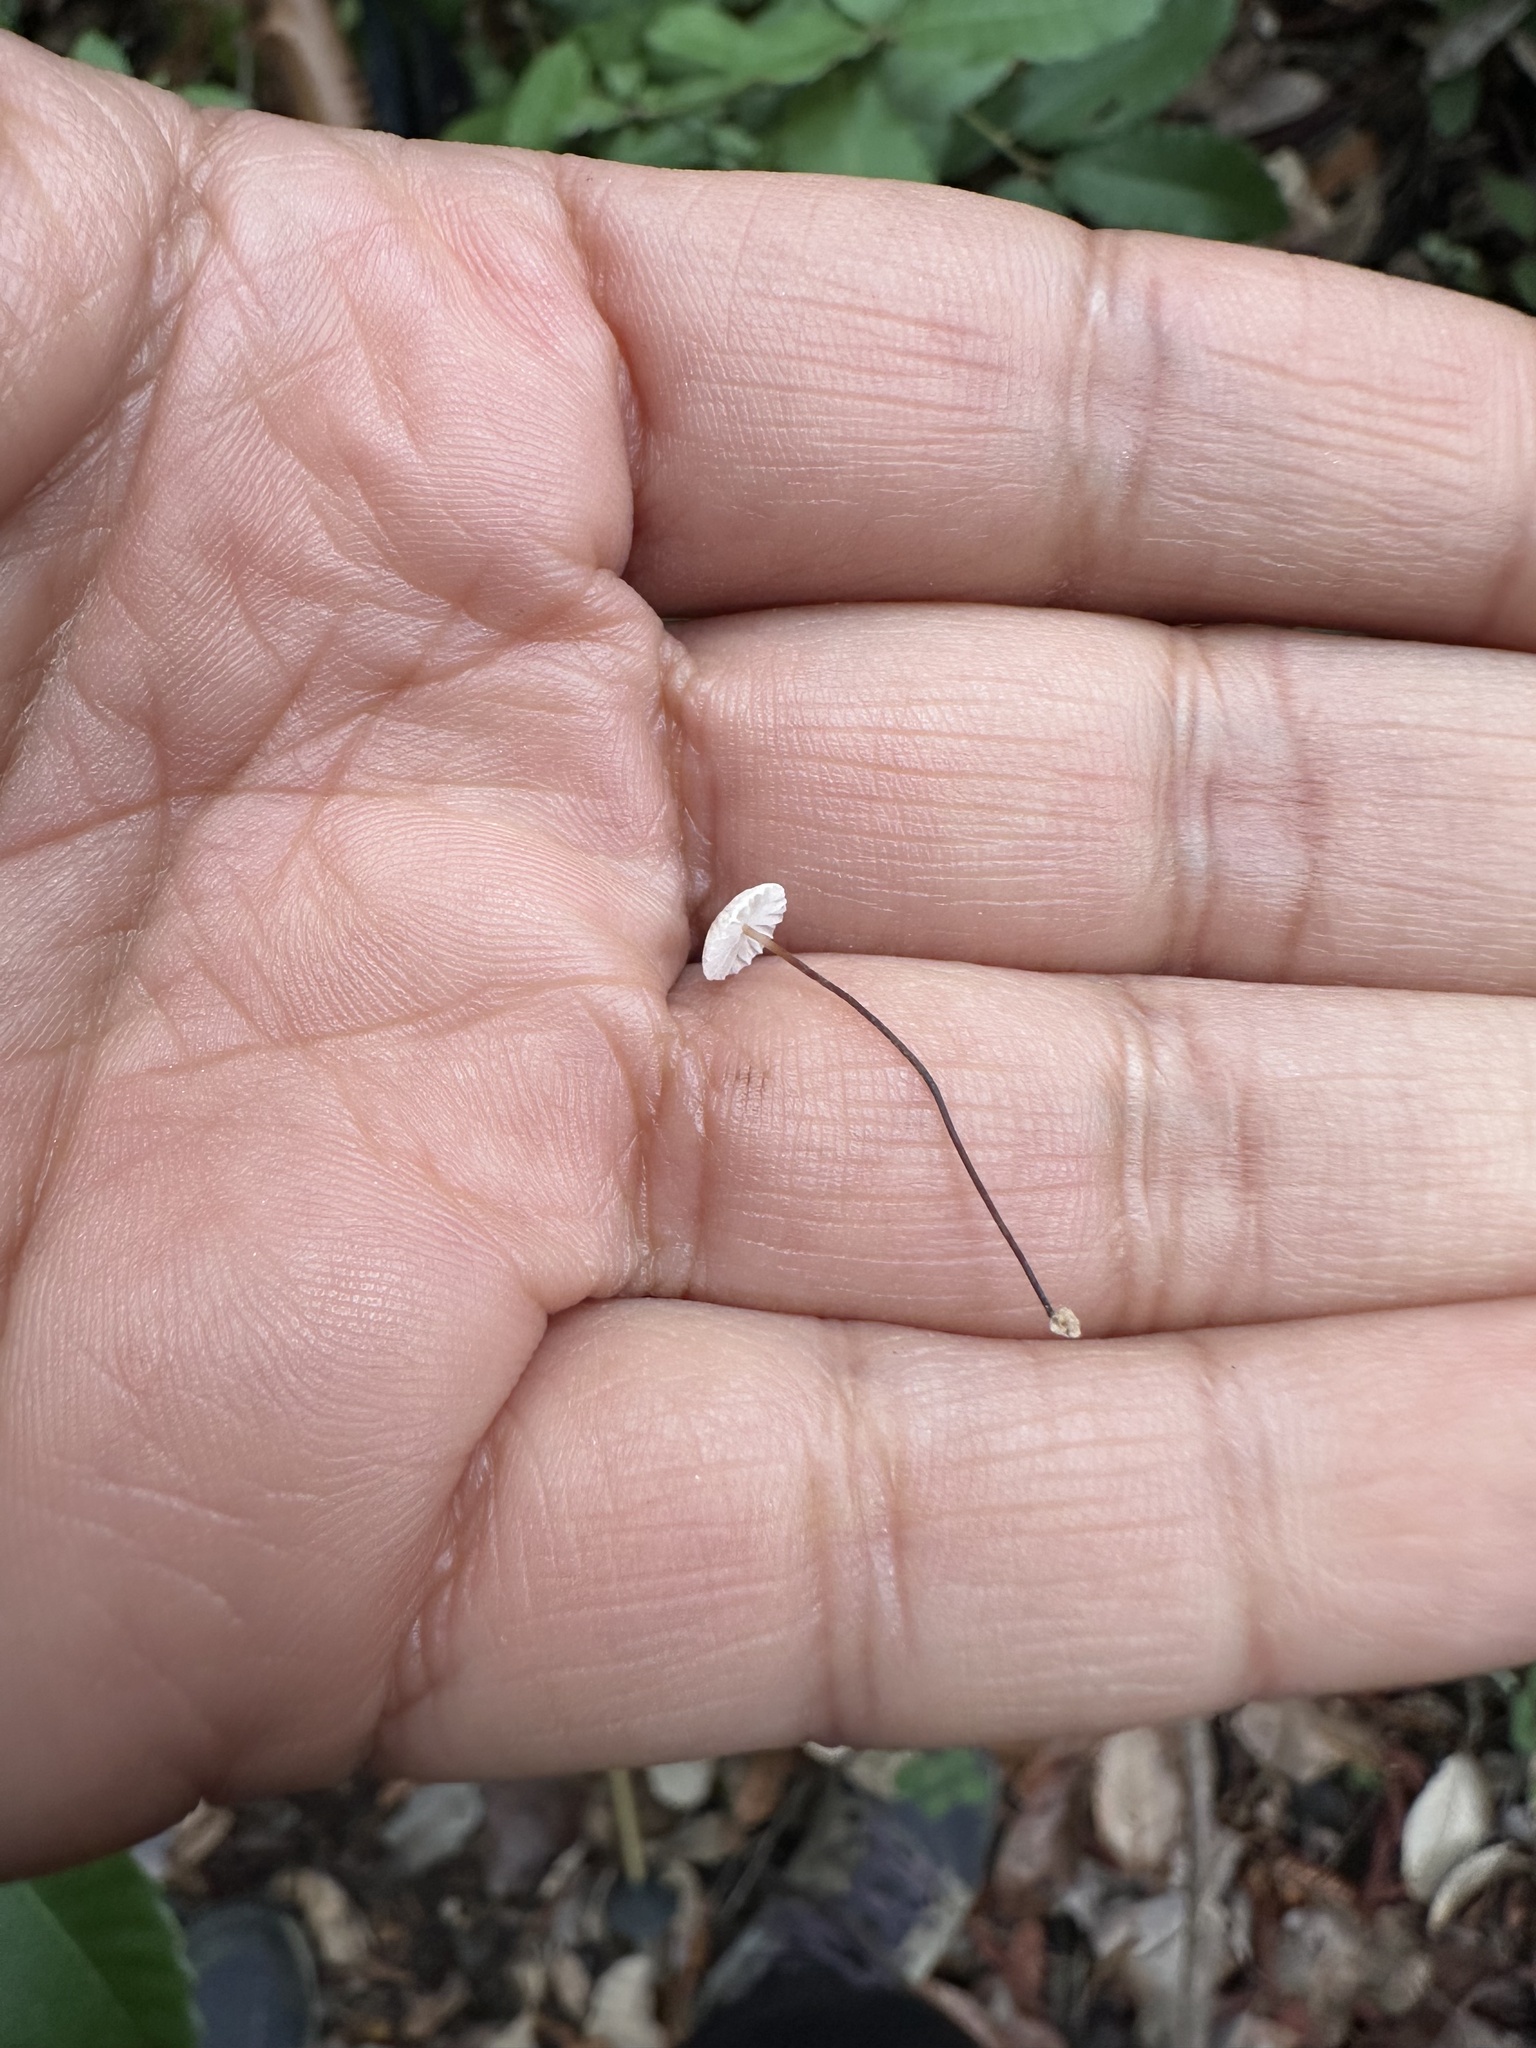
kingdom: Fungi
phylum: Basidiomycota
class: Agaricomycetes
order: Agaricales
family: Omphalotaceae
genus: Collybiopsis
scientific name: Collybiopsis quercophila
